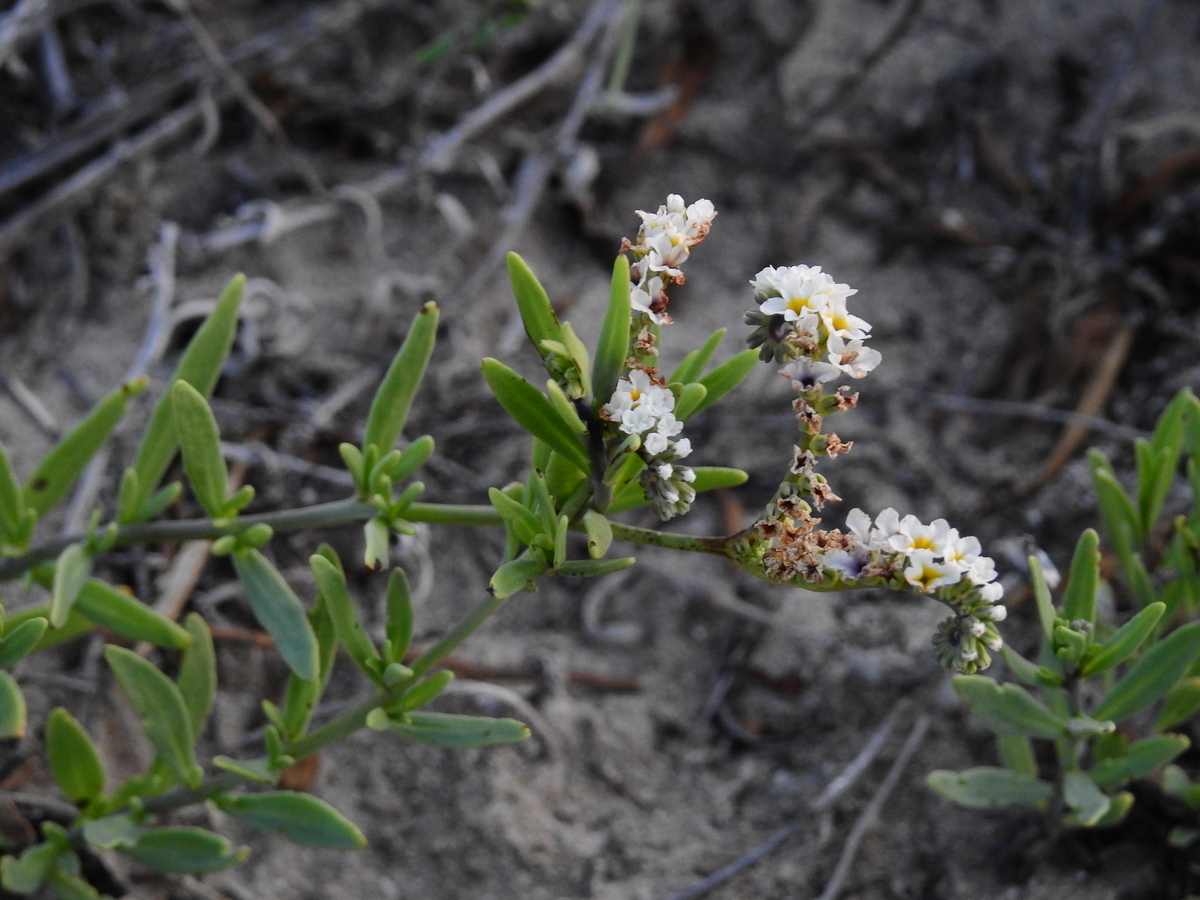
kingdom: Plantae
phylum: Tracheophyta
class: Magnoliopsida
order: Boraginales
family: Heliotropiaceae
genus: Heliotropium
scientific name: Heliotropium curassavicum
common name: Seaside heliotrope
